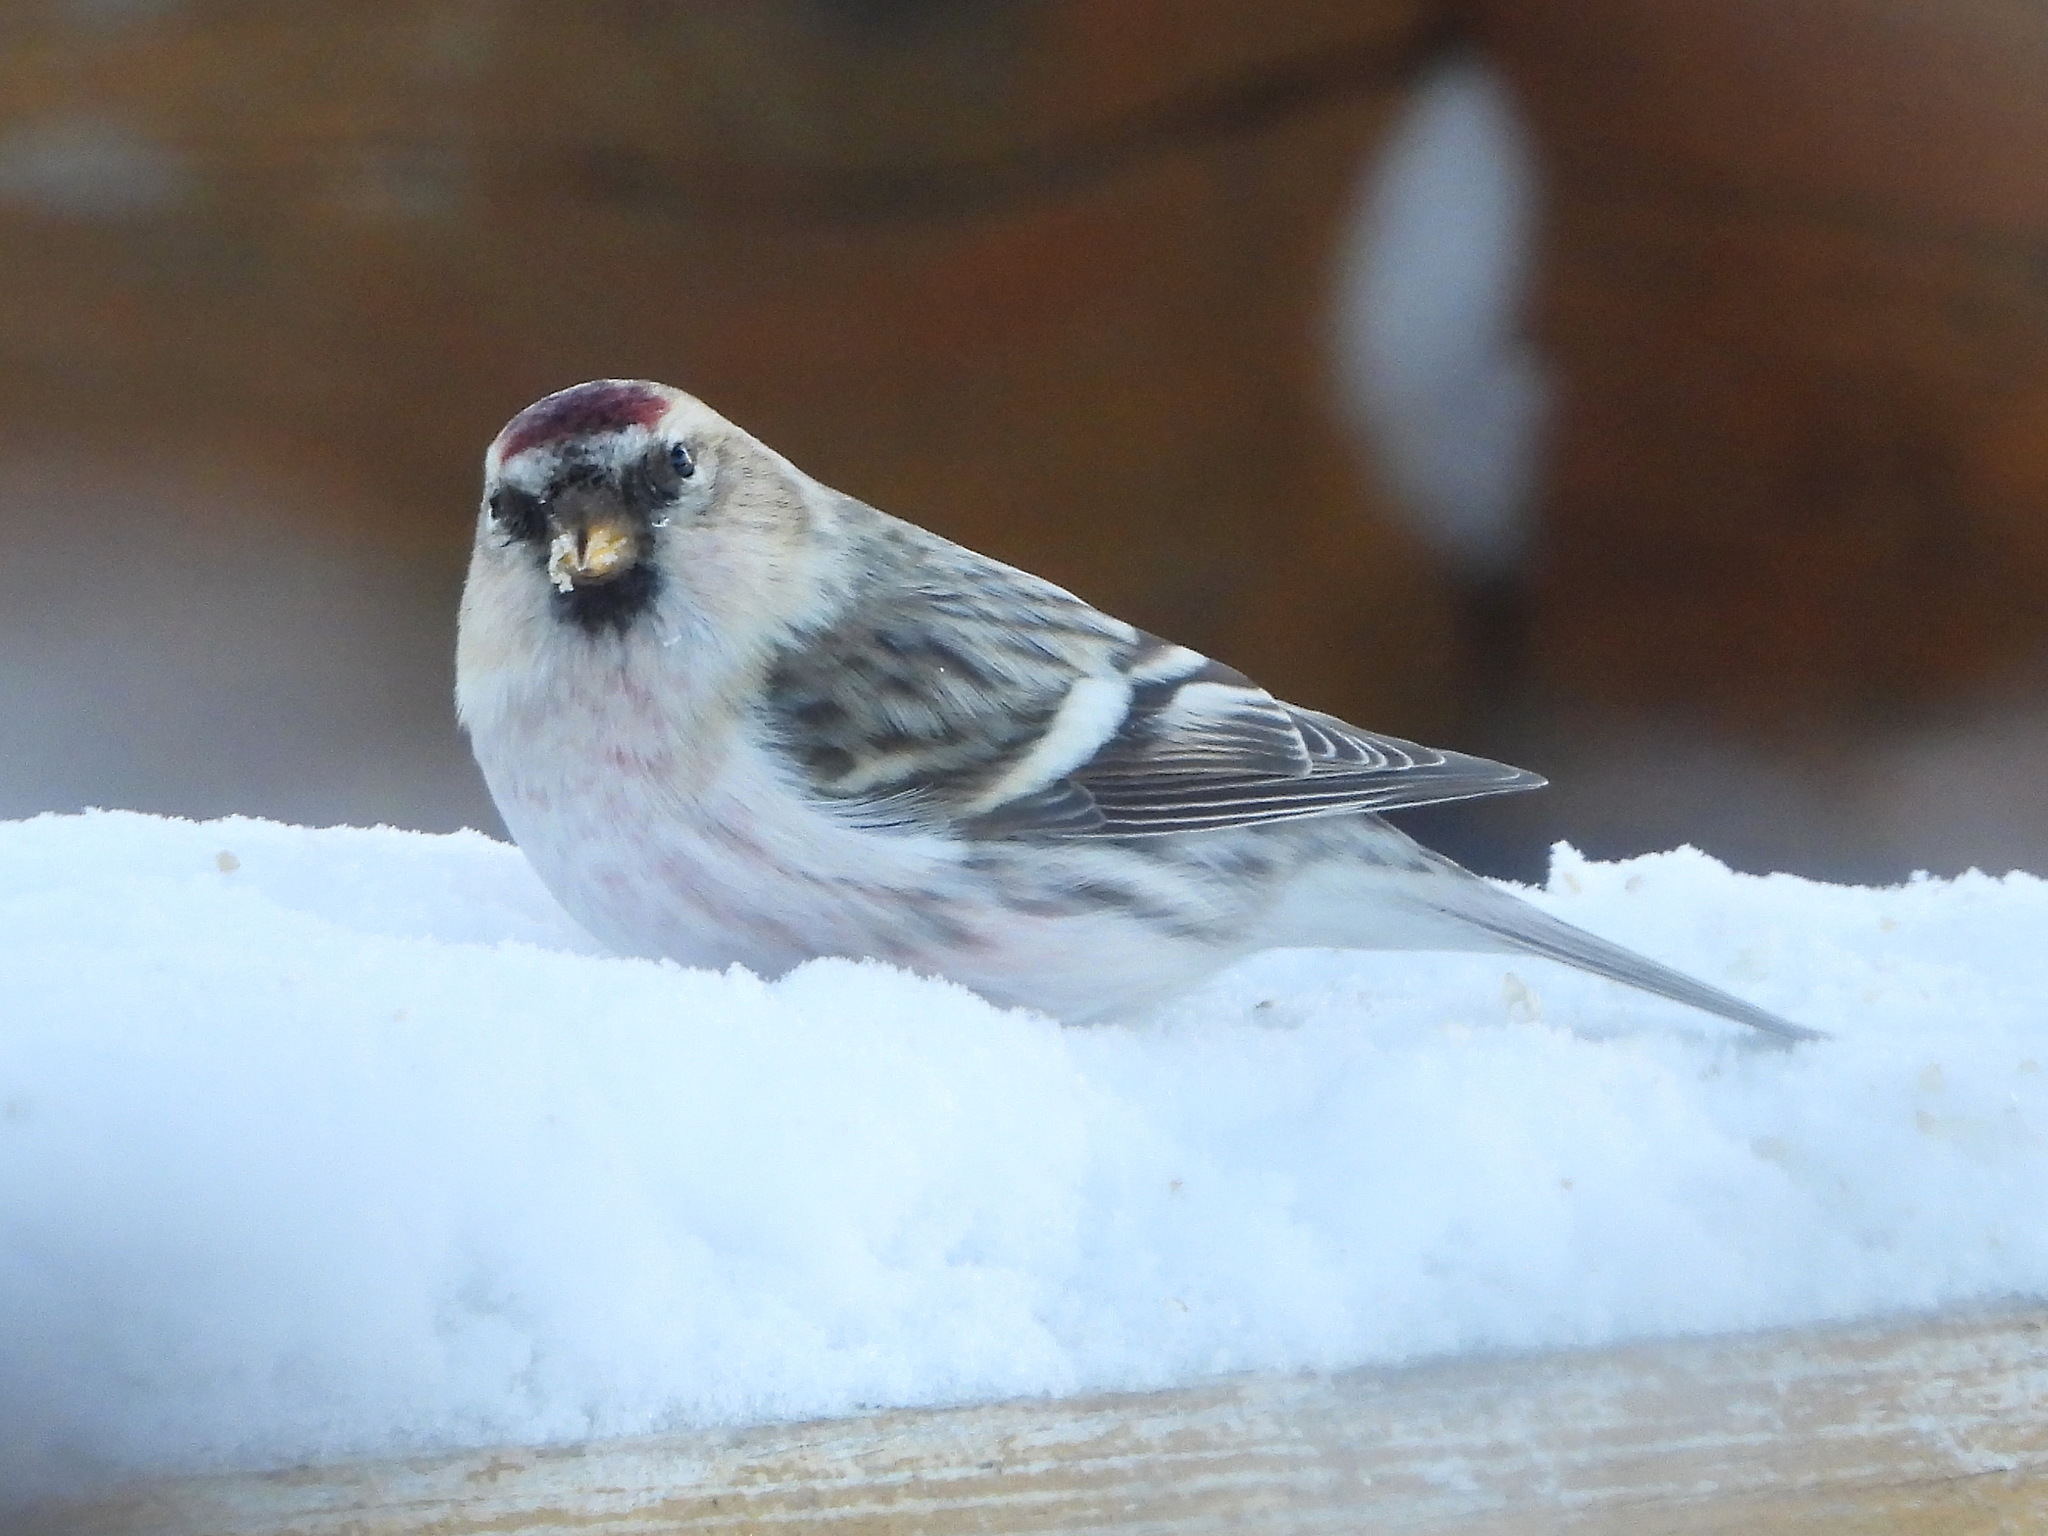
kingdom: Animalia
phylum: Chordata
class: Aves
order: Passeriformes
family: Fringillidae
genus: Acanthis
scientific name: Acanthis hornemanni
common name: Arctic redpoll
